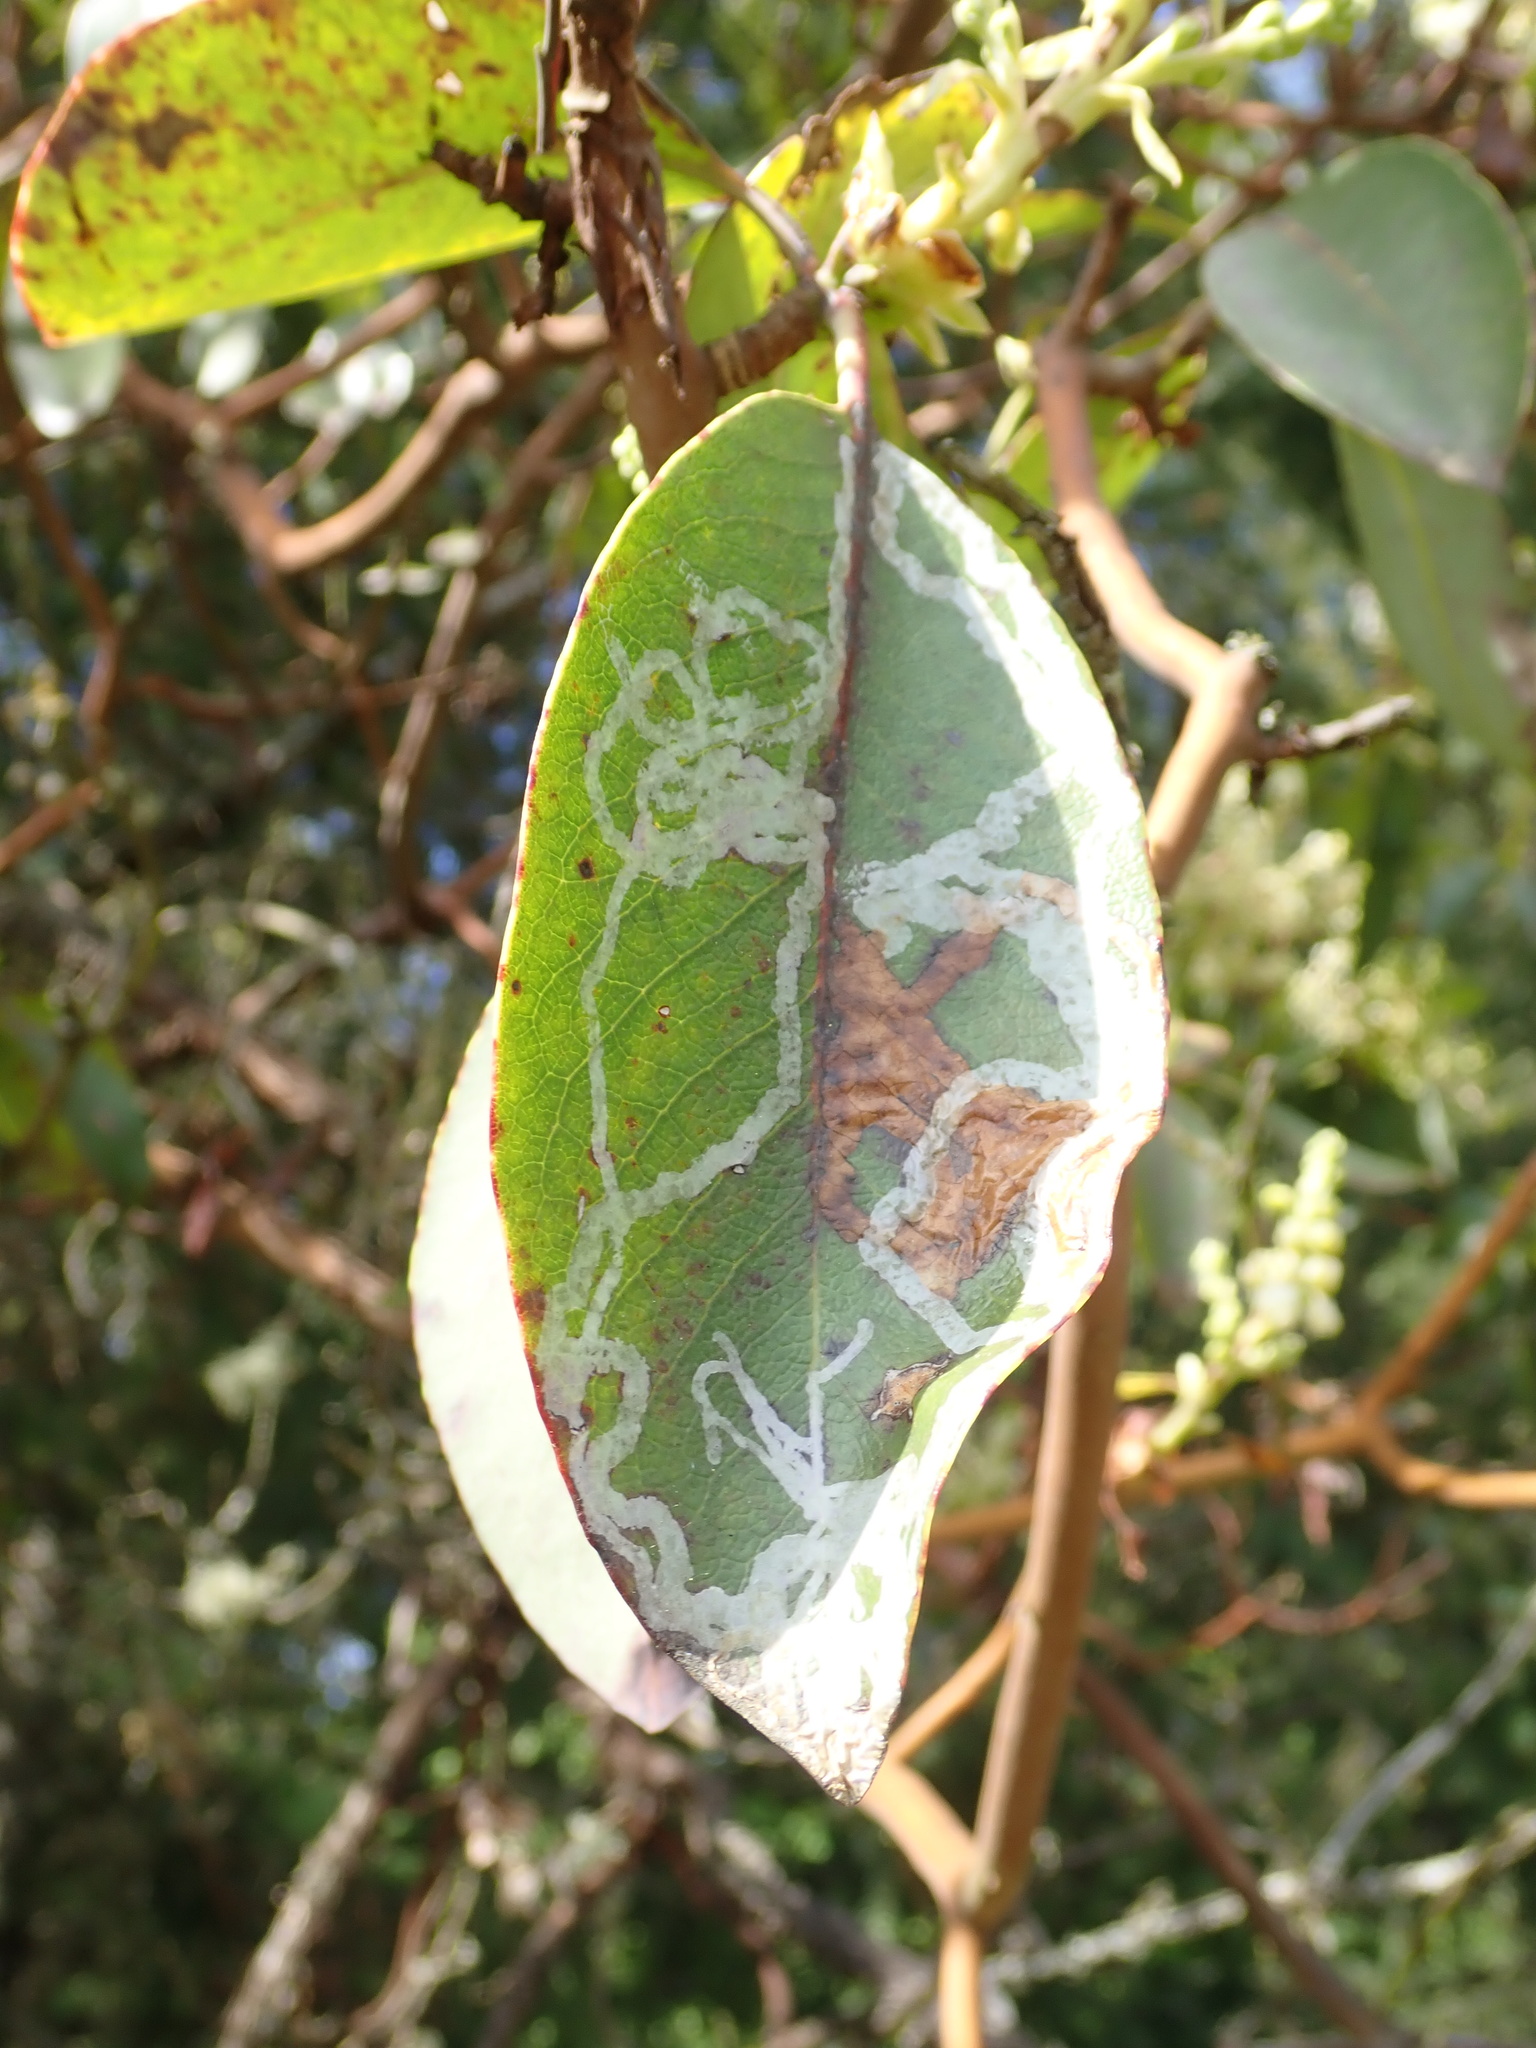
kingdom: Animalia
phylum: Arthropoda
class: Insecta
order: Lepidoptera
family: Gracillariidae
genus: Marmara
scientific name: Marmara arbutiella
